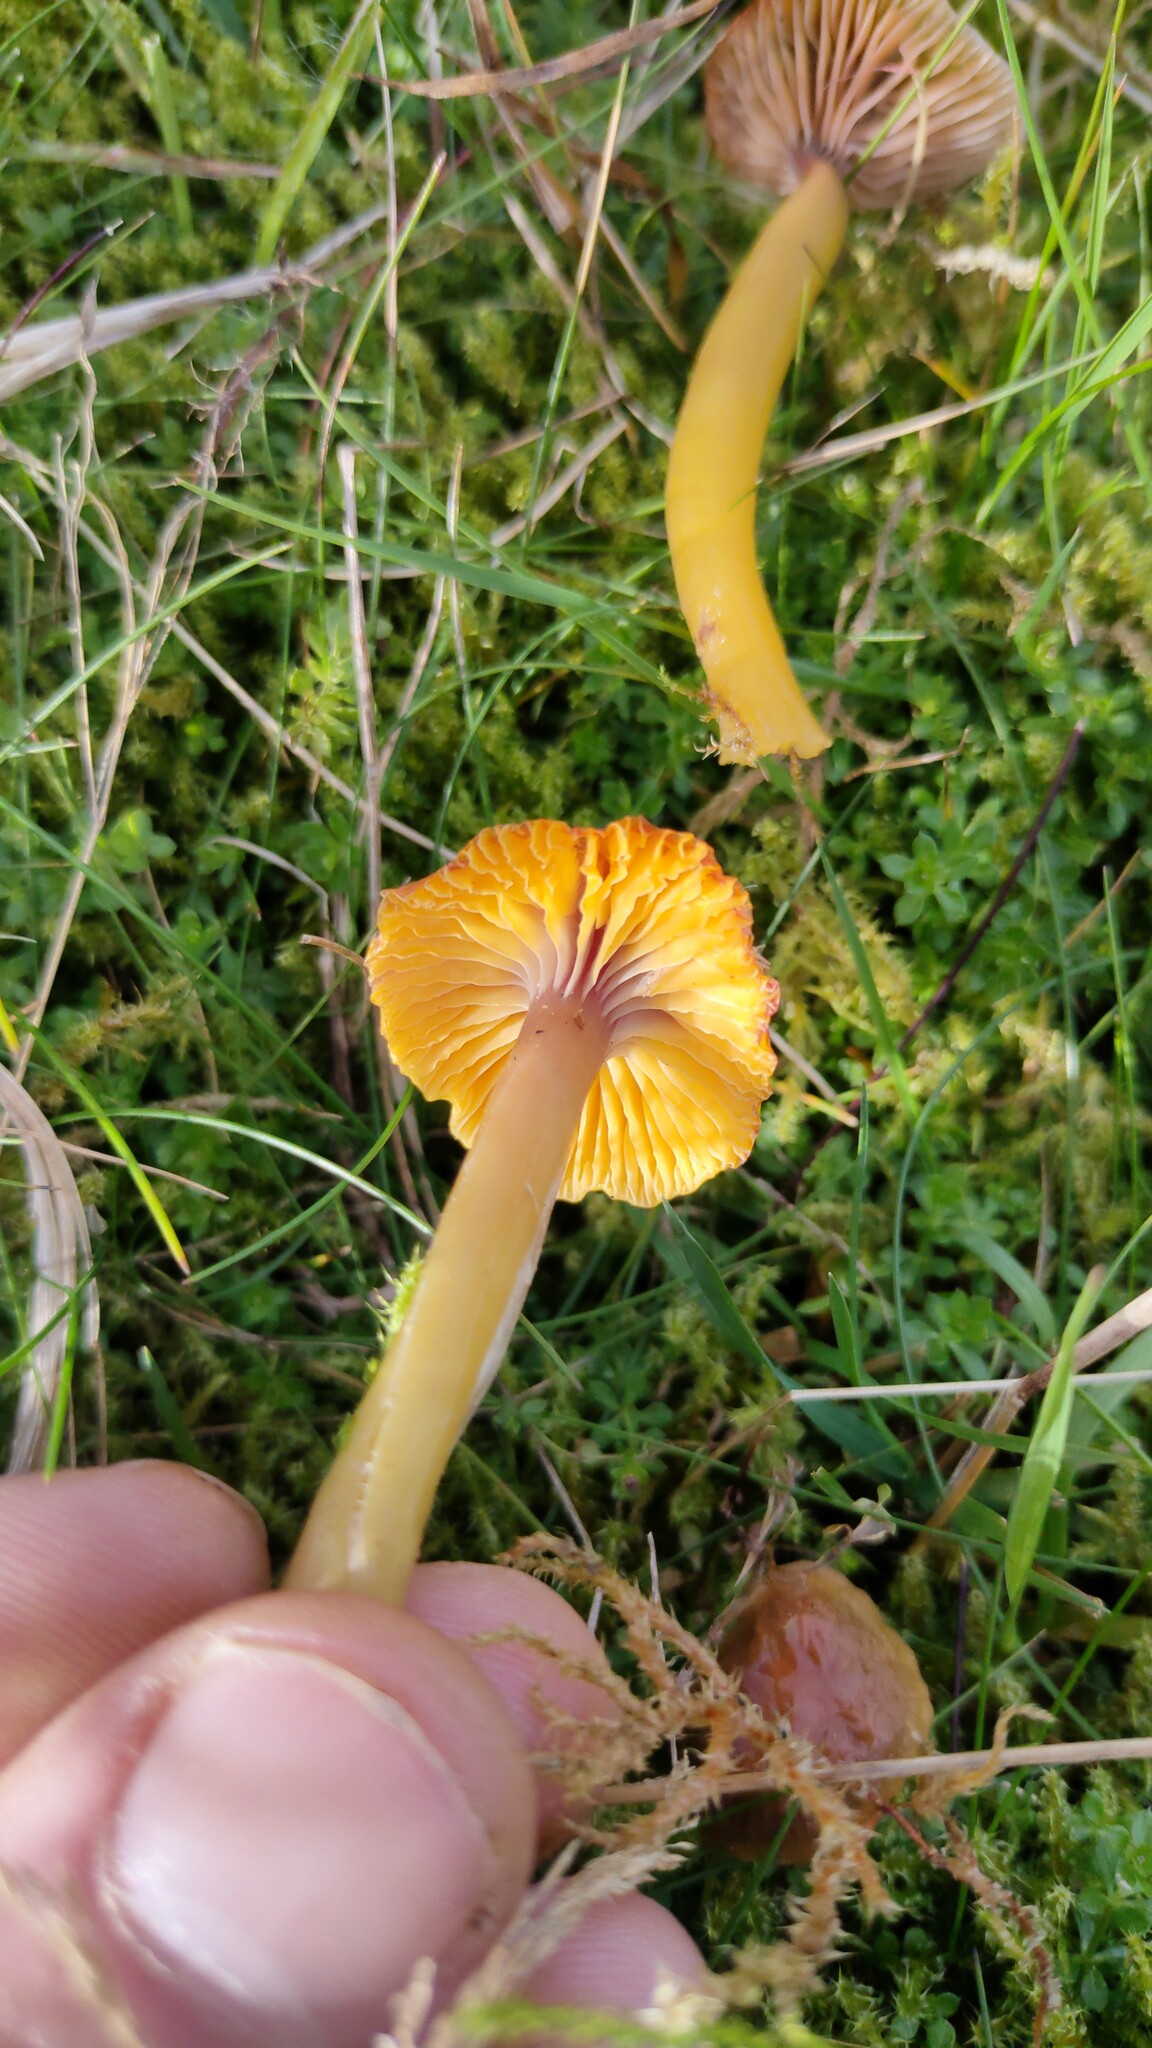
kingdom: Fungi
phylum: Basidiomycota
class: Agaricomycetes
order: Agaricales
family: Hygrophoraceae
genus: Gliophorus
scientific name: Gliophorus laetus
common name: Heath waxcap
